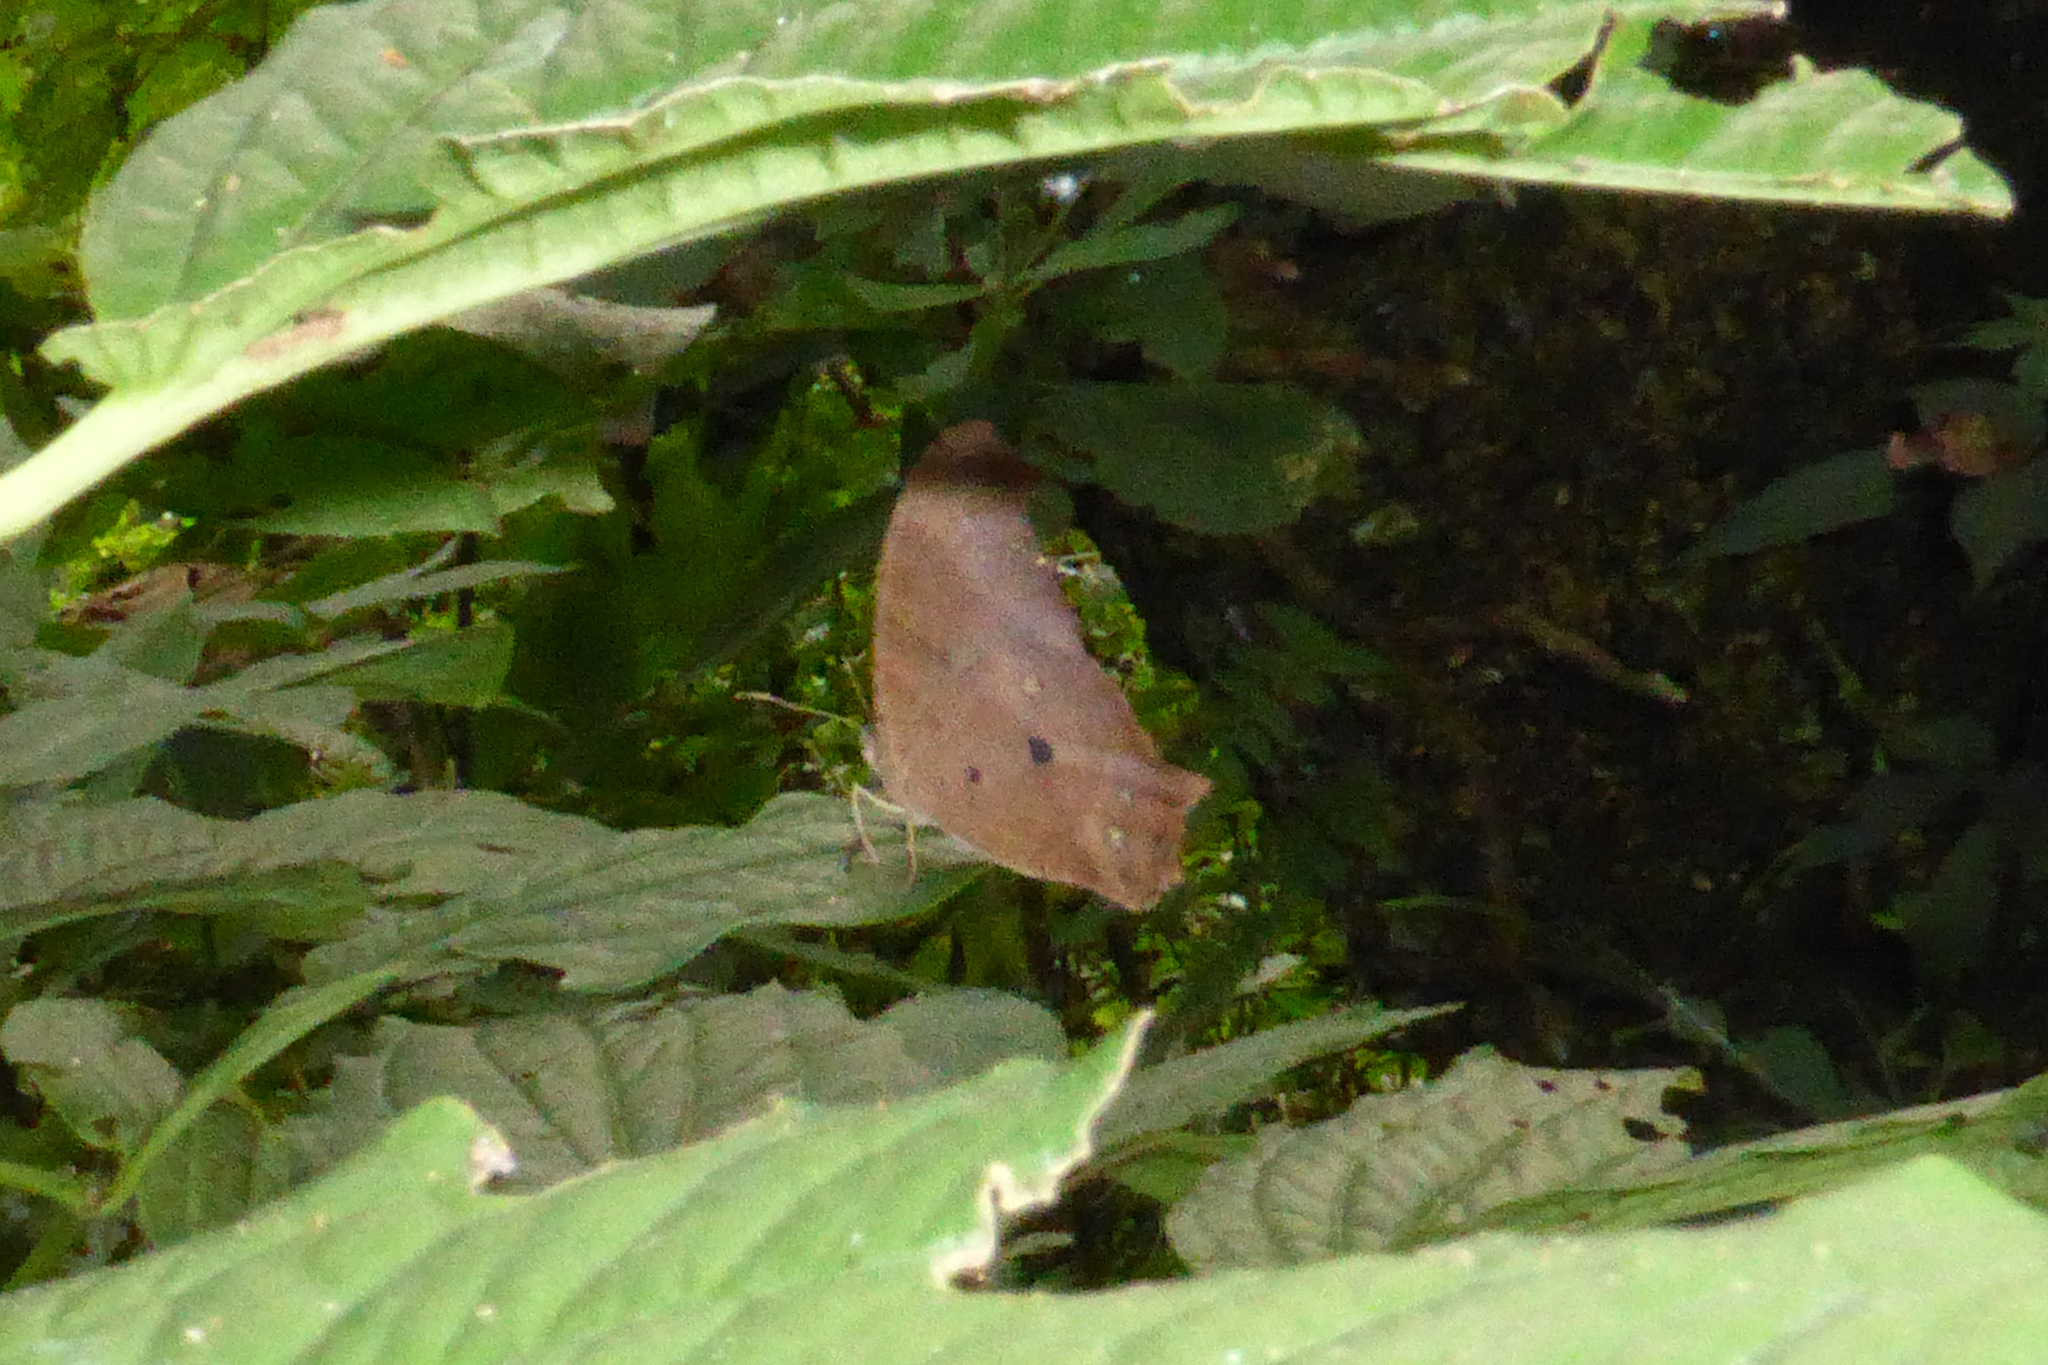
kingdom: Animalia
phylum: Arthropoda
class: Insecta
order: Lepidoptera
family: Nymphalidae
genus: Melanitis
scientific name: Melanitis leda
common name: Twilight brown
